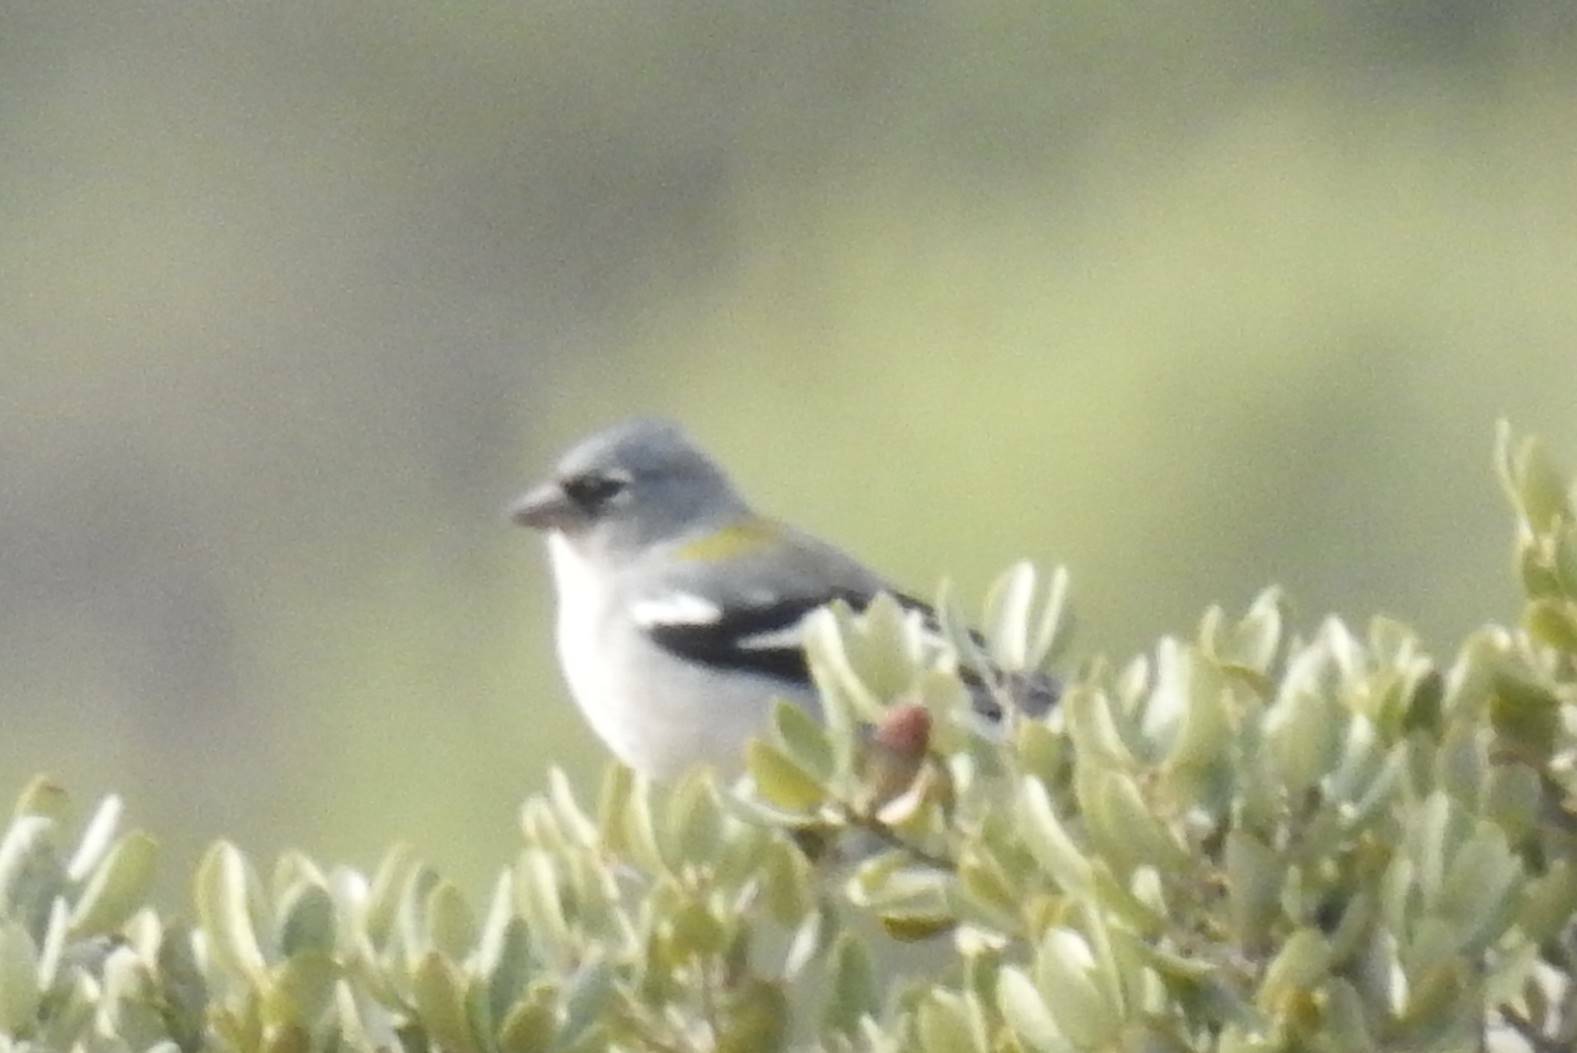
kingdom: Animalia
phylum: Chordata
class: Aves
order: Passeriformes
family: Fringillidae
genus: Fringilla
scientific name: Fringilla spodiogenys
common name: African chaffinch
